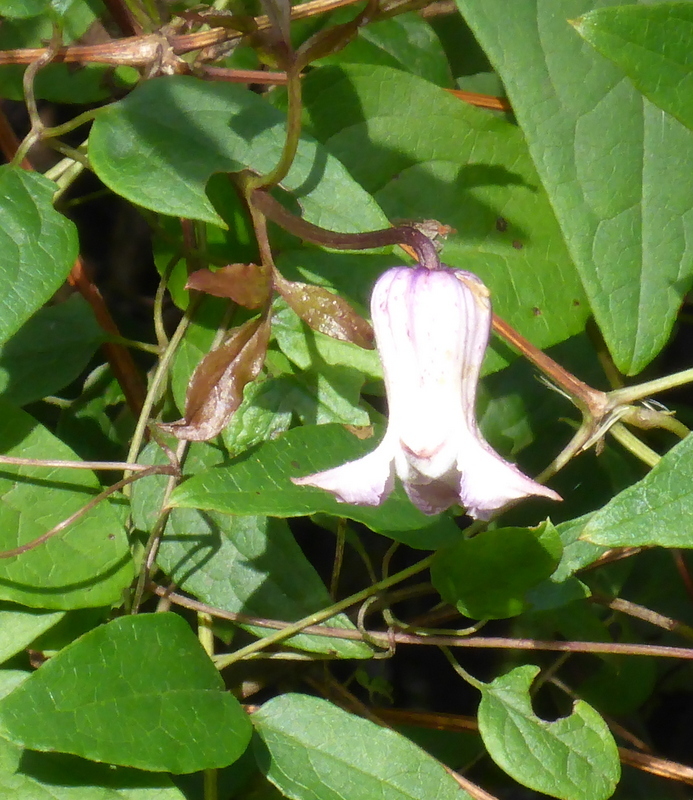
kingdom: Plantae
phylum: Tracheophyta
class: Magnoliopsida
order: Ranunculales
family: Ranunculaceae
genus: Clematis
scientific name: Clematis crispa
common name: Curly clematis
